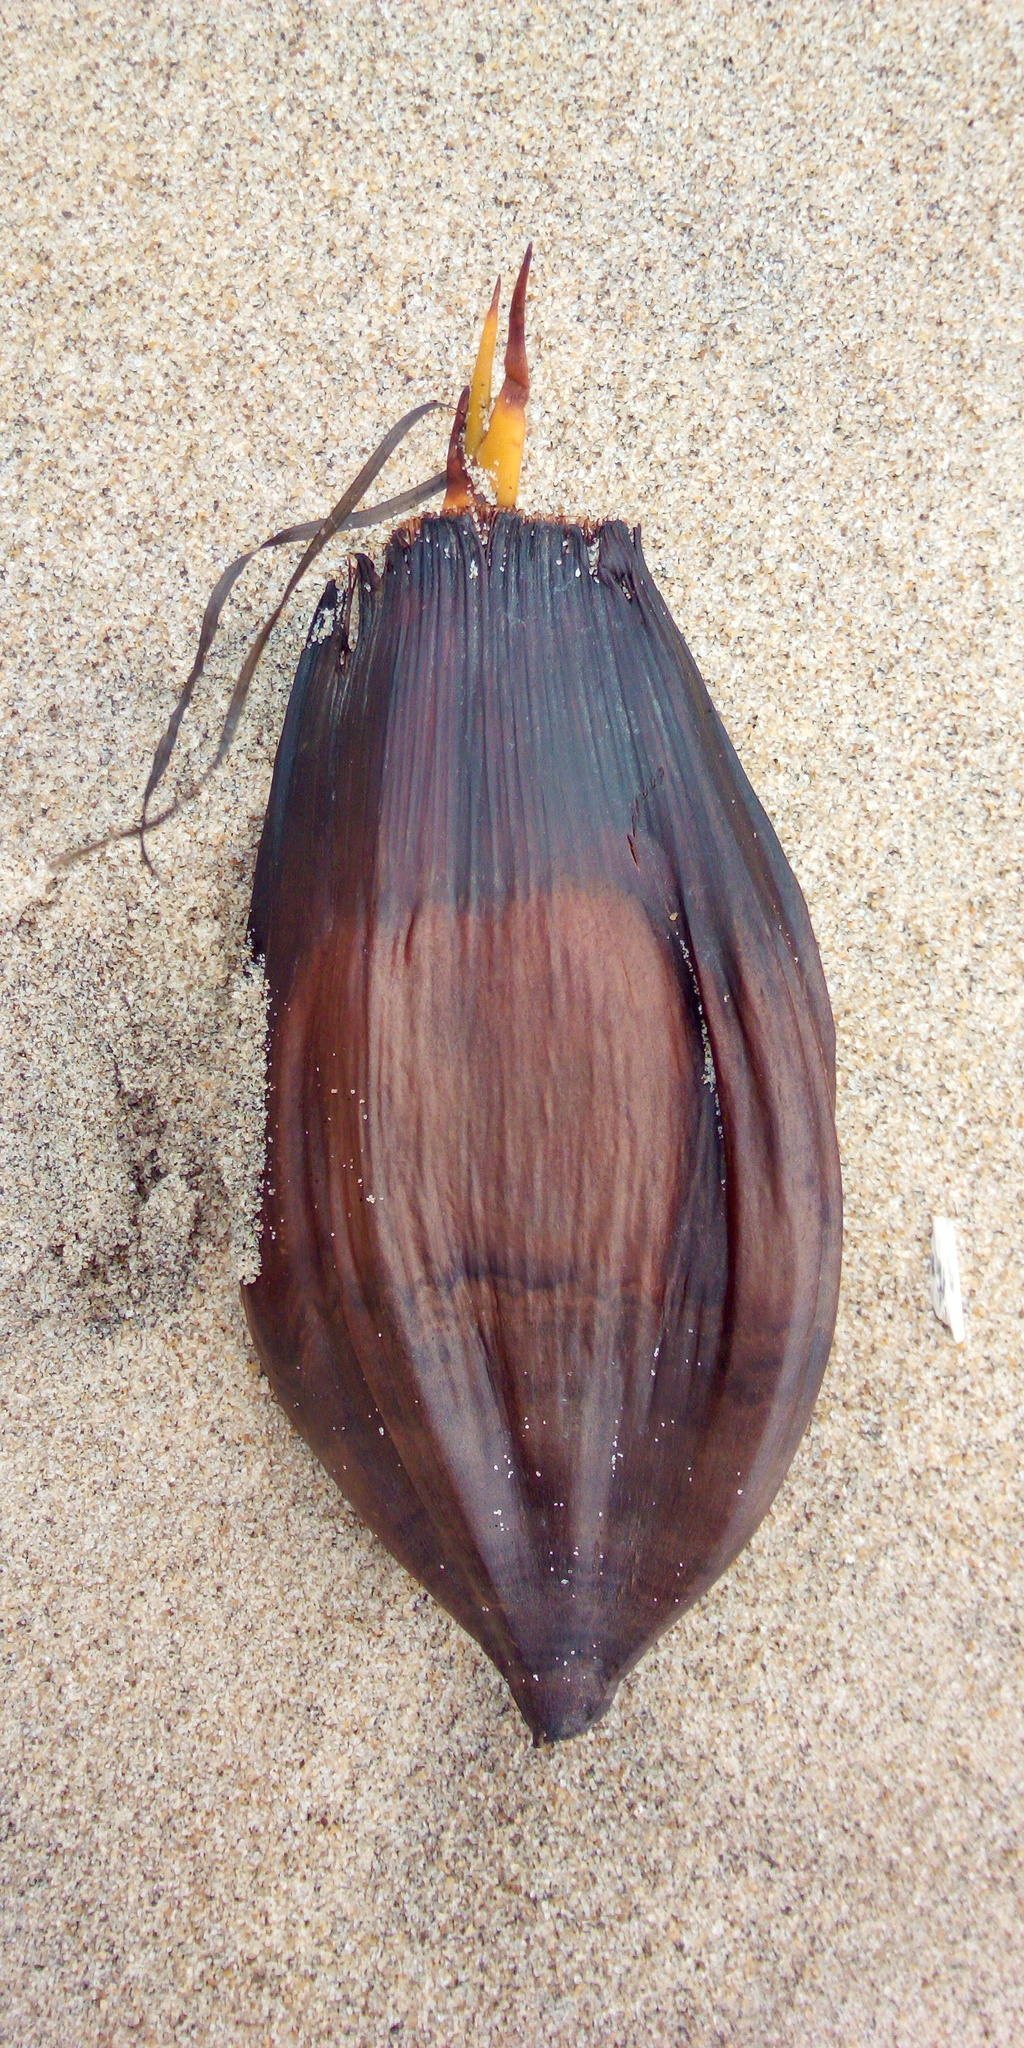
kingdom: Plantae
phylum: Tracheophyta
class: Liliopsida
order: Arecales
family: Arecaceae
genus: Nypa
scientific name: Nypa fruticans
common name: Mangrove palm
